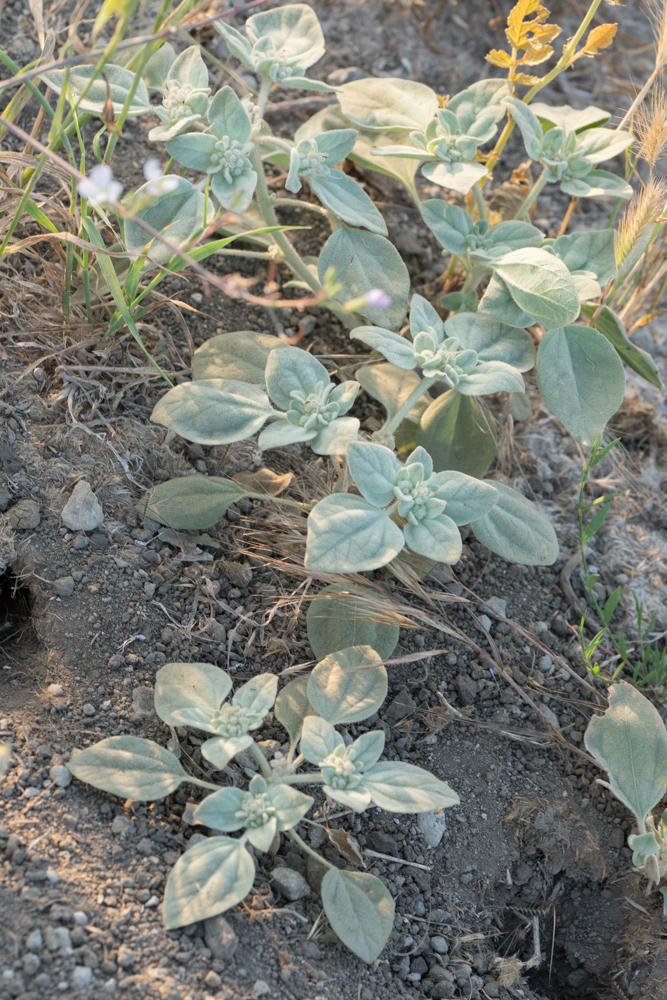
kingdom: Plantae
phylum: Tracheophyta
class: Magnoliopsida
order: Malpighiales
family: Euphorbiaceae
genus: Croton
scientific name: Croton setiger
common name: Dove weed
